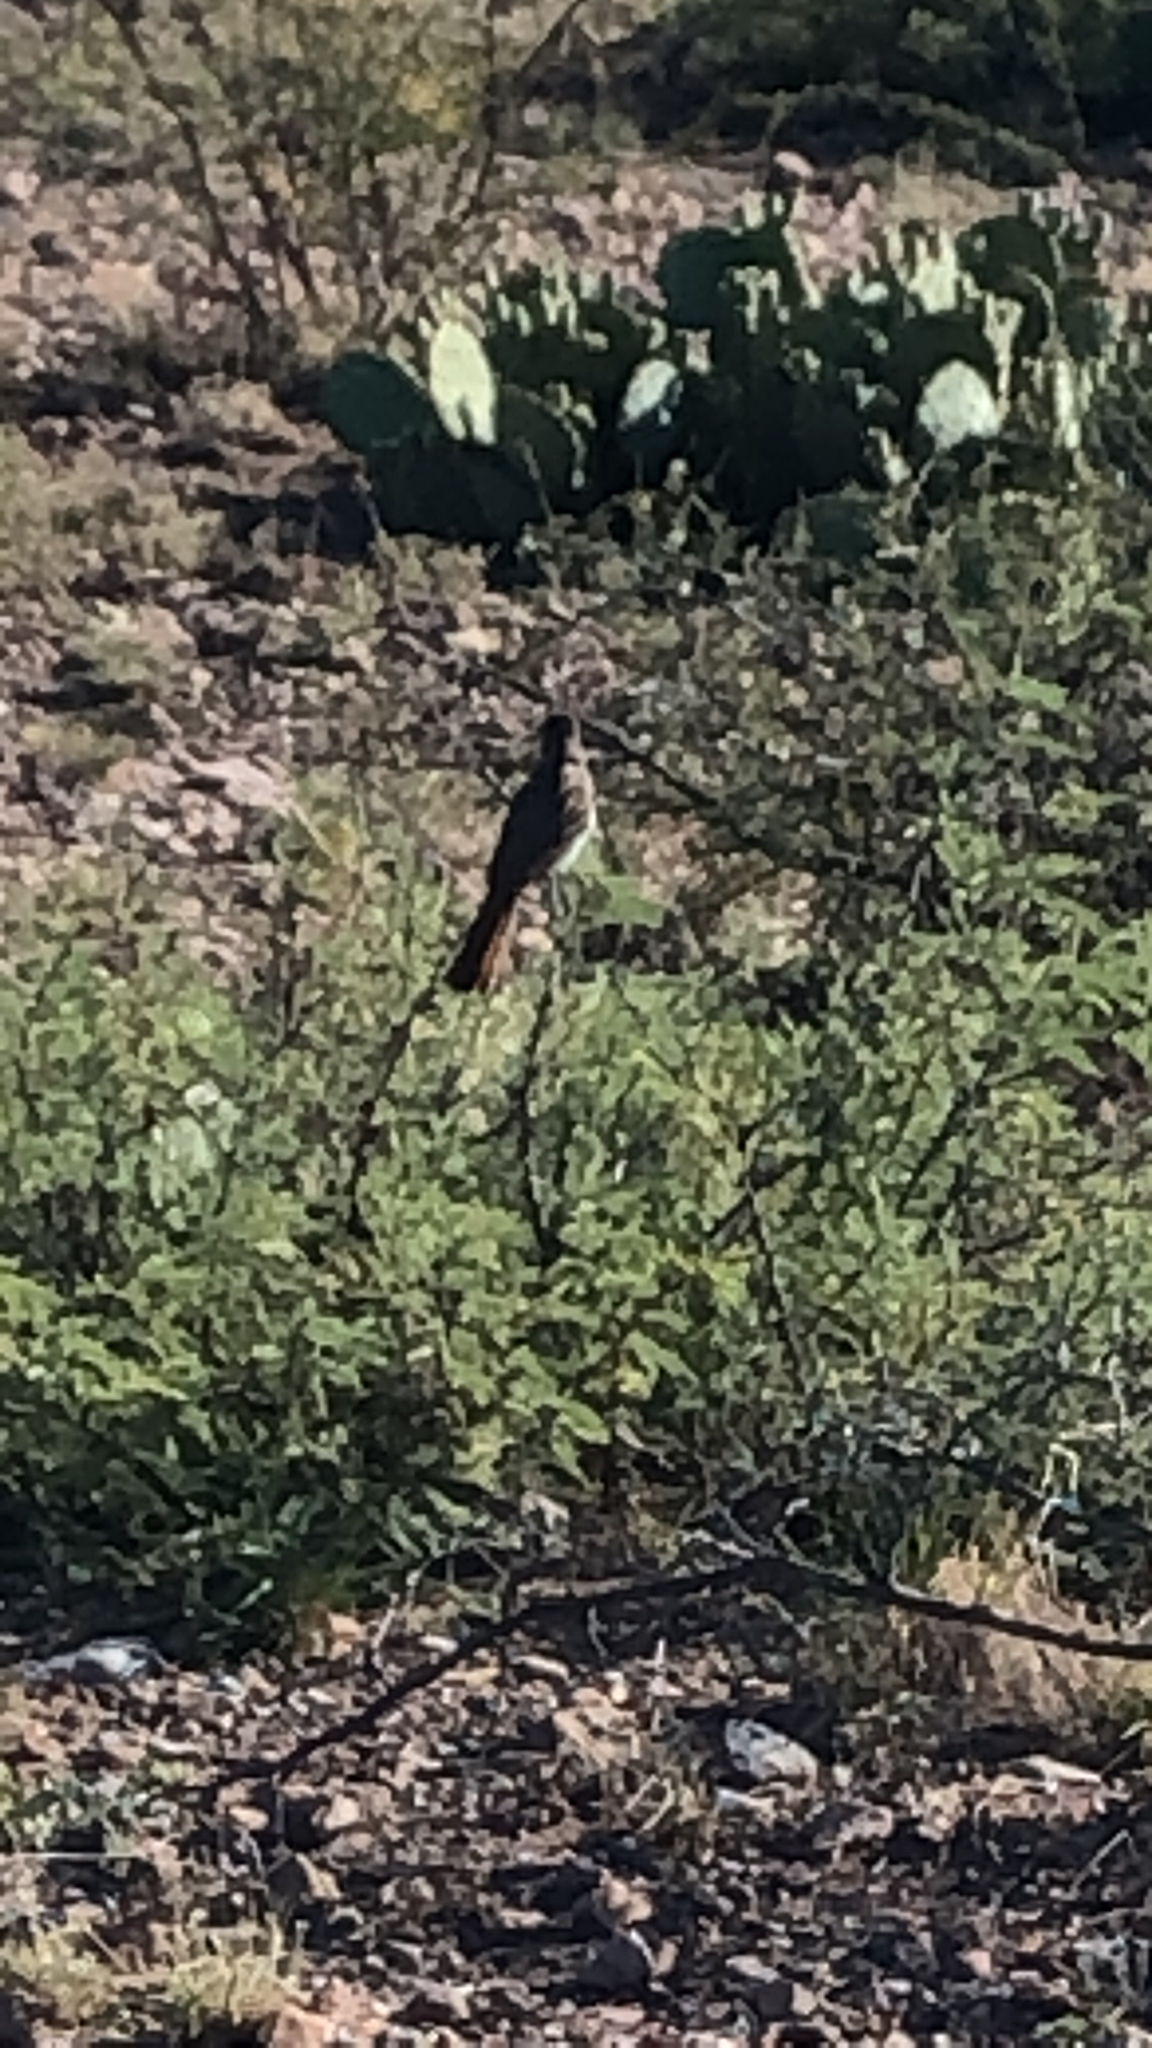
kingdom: Animalia
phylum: Chordata
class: Aves
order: Passeriformes
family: Tyrannidae
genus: Myiarchus
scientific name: Myiarchus cinerascens
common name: Ash-throated flycatcher
